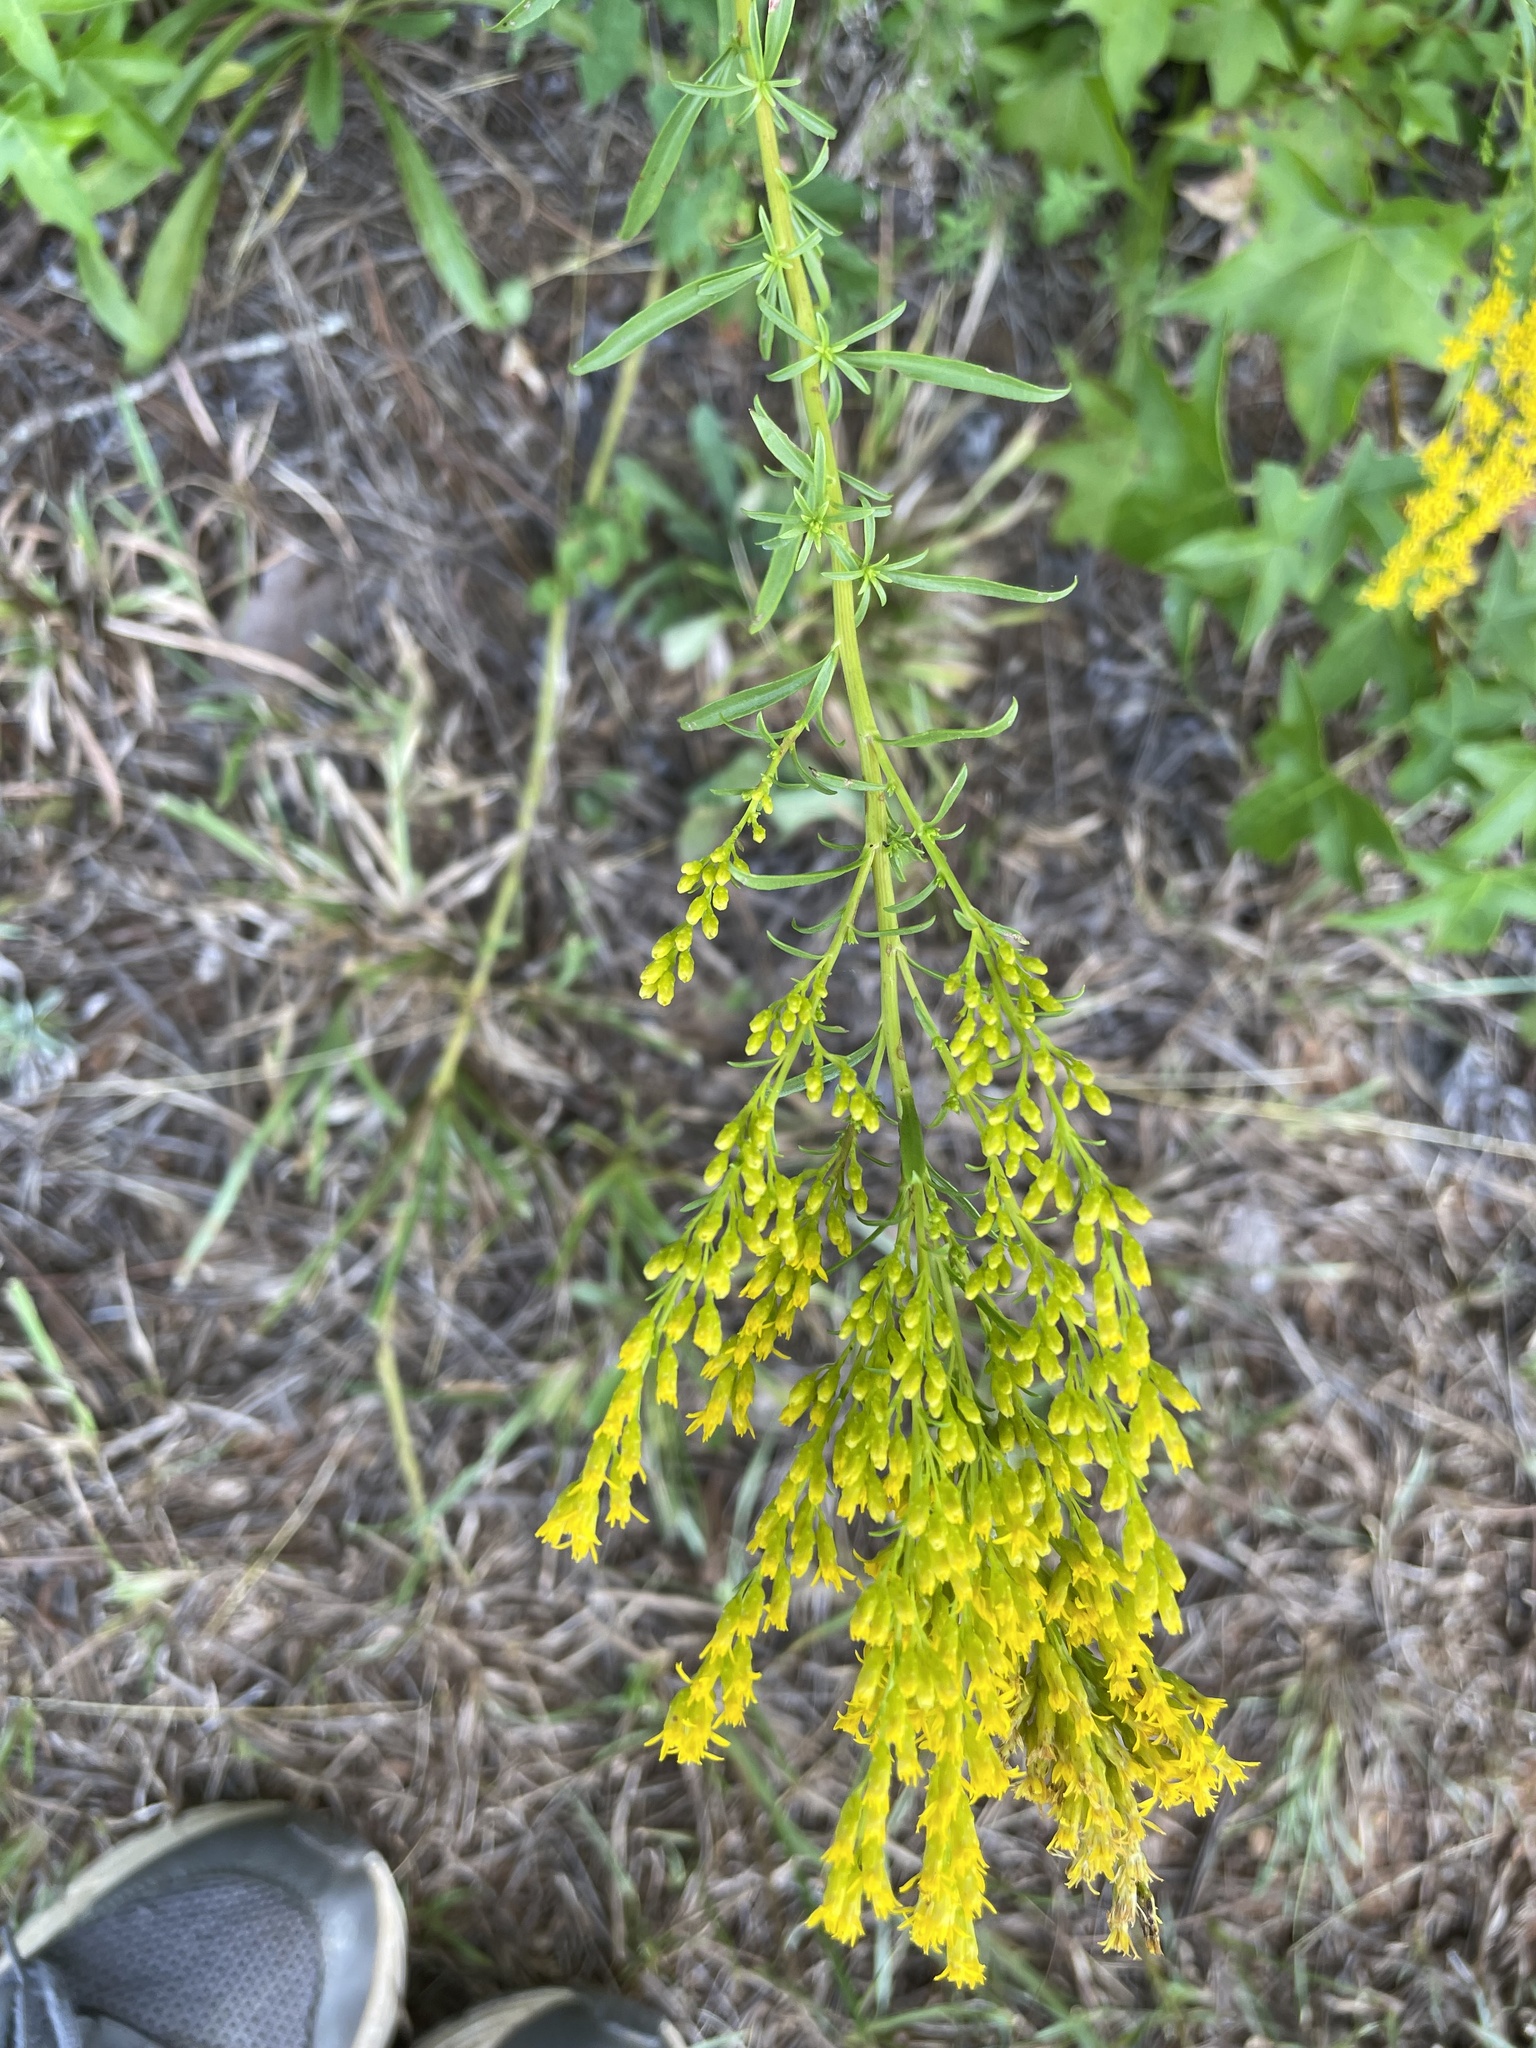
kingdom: Plantae
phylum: Tracheophyta
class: Magnoliopsida
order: Asterales
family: Asteraceae
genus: Solidago
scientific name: Solidago pinetorum
